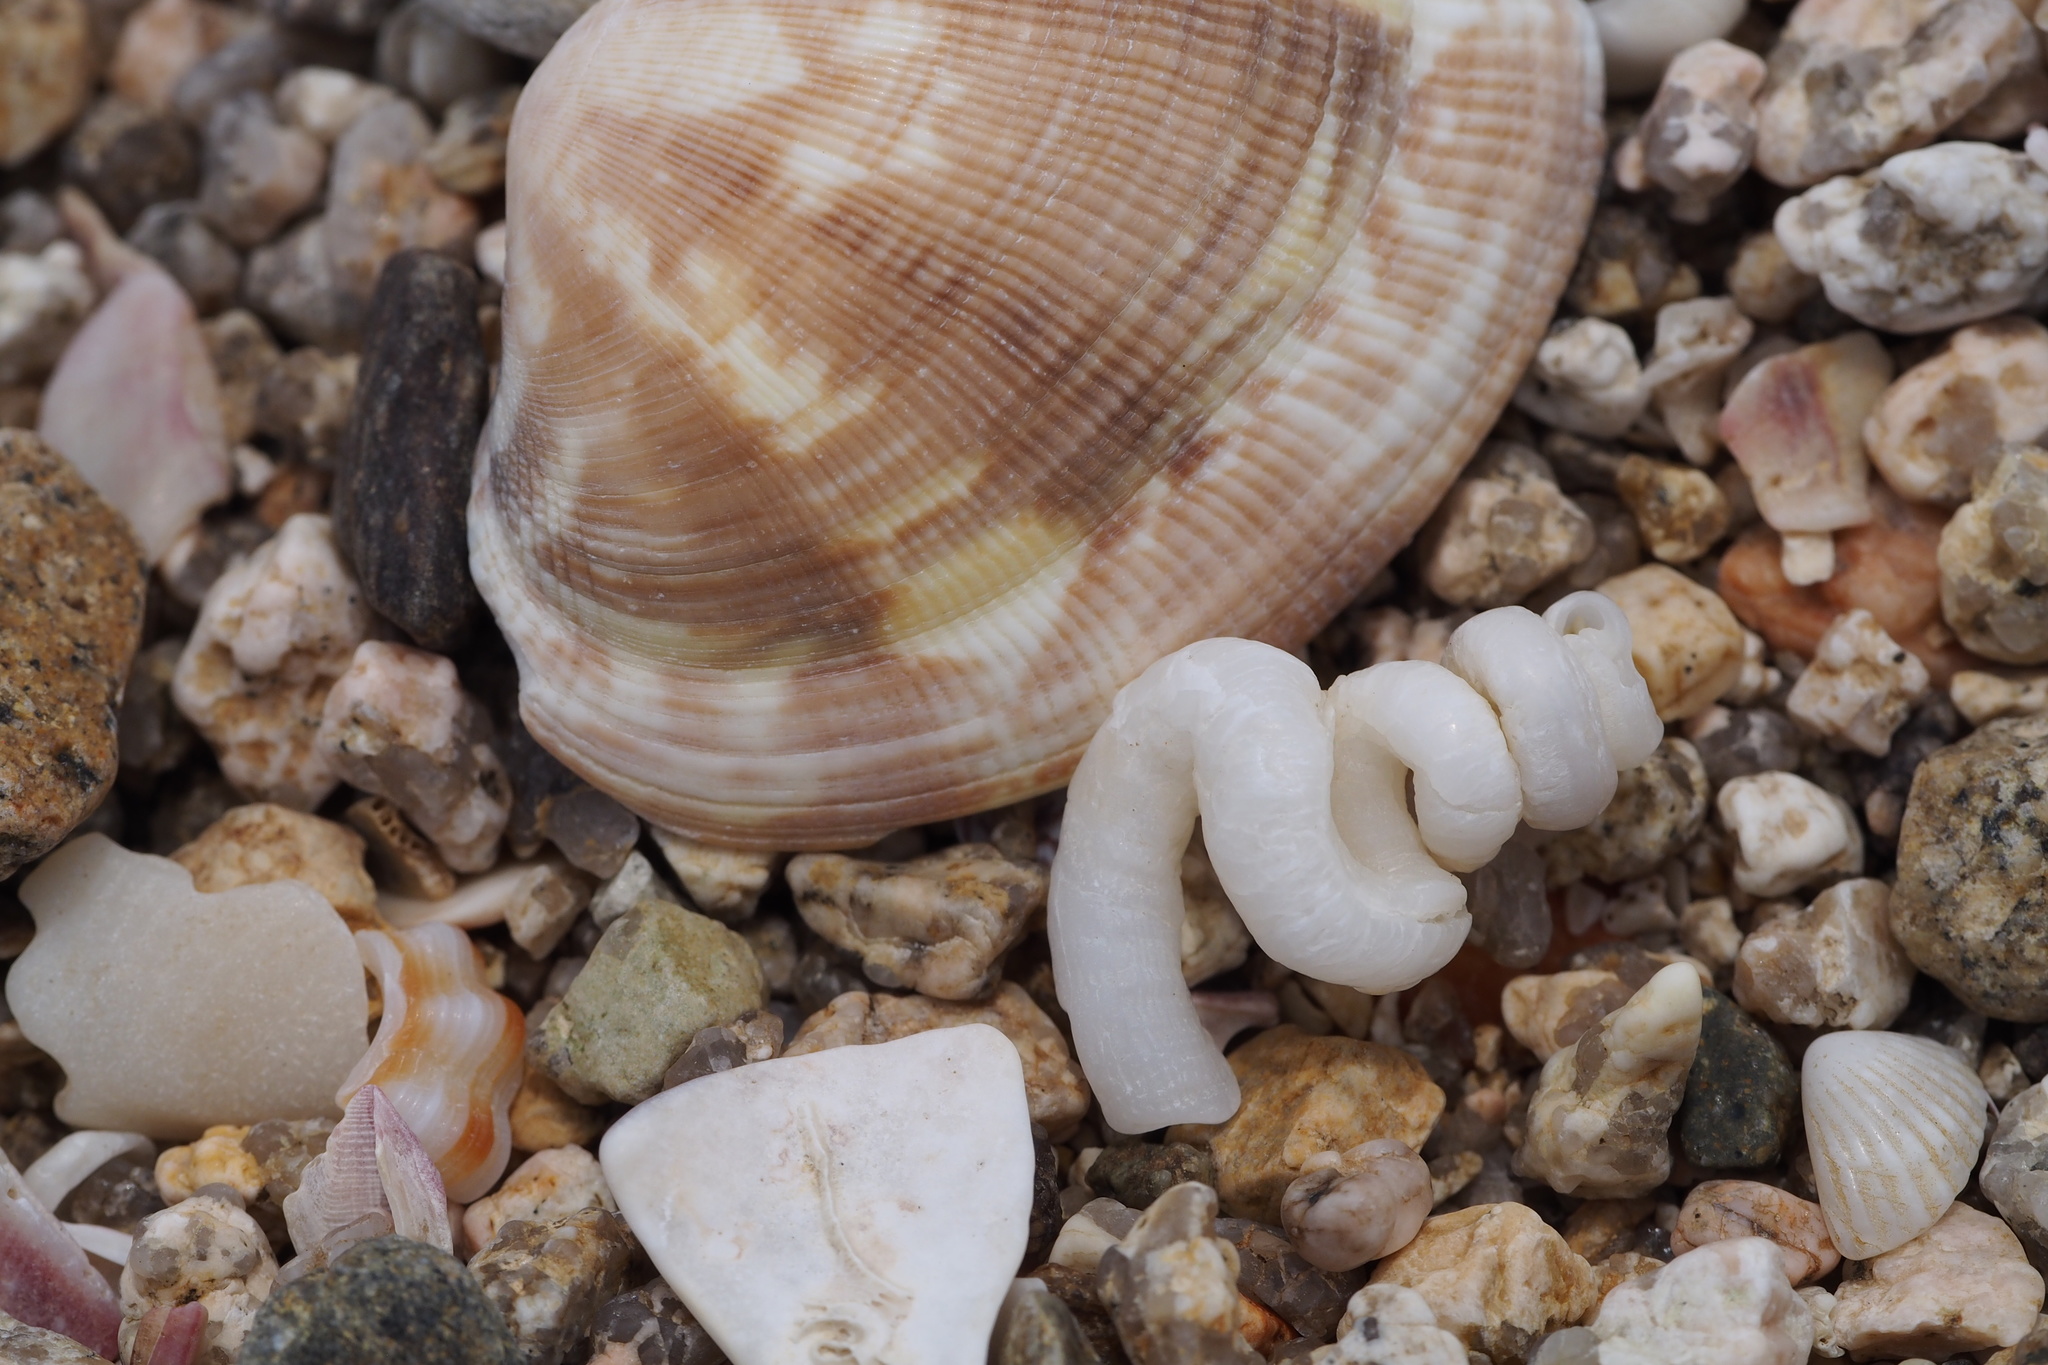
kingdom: Animalia
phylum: Mollusca
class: Gastropoda
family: Siliquariidae
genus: Tenagodus
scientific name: Tenagodus cumingii
